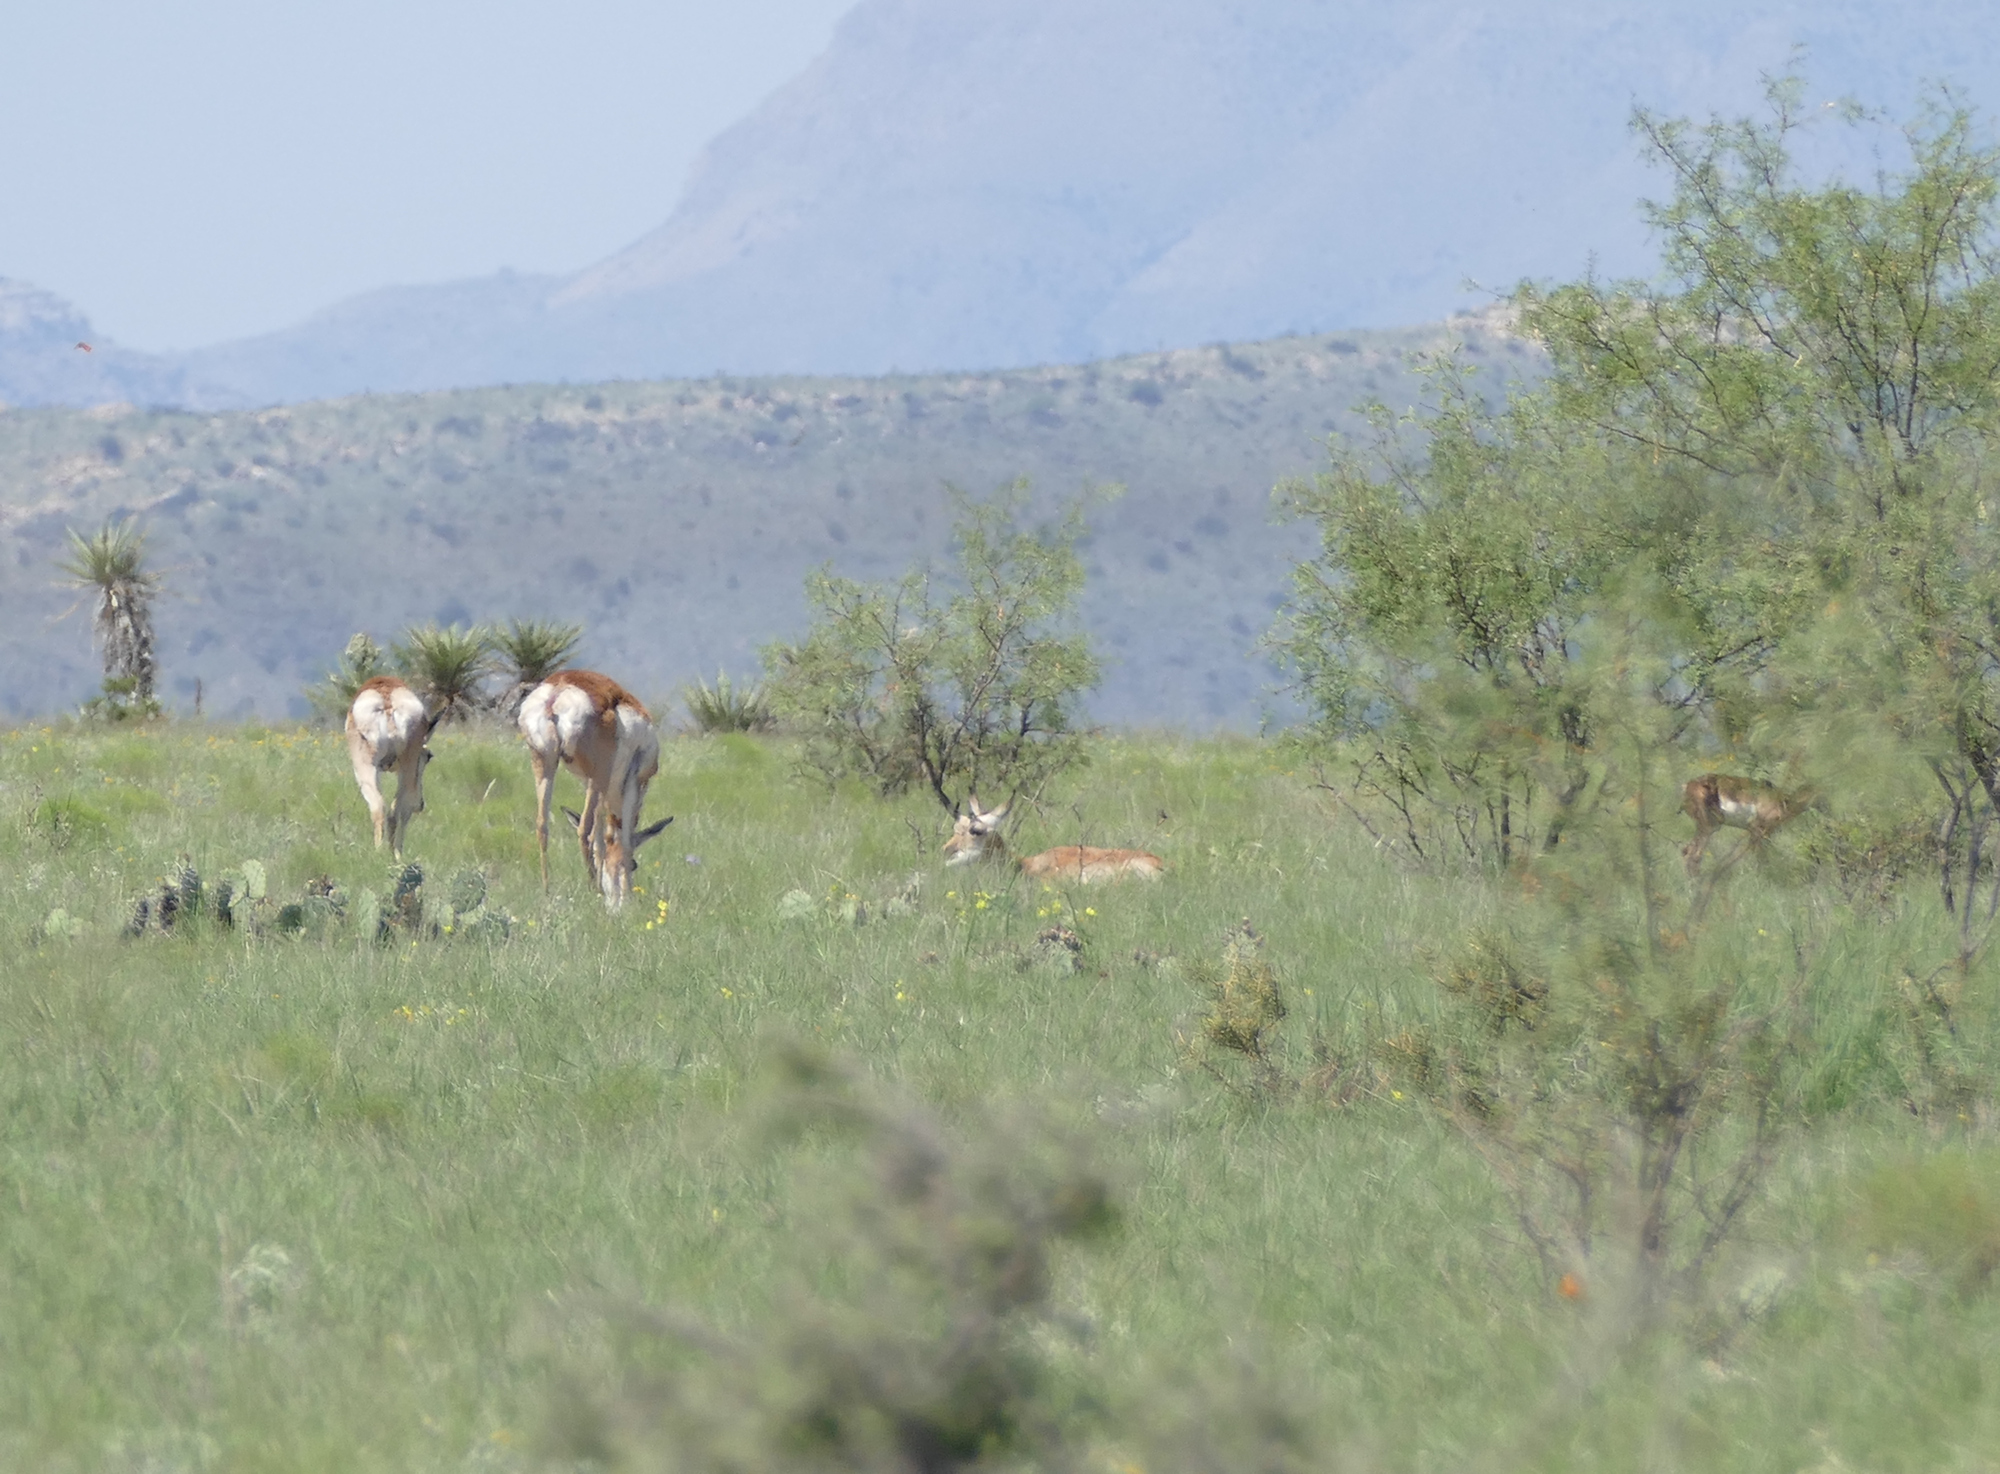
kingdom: Animalia
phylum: Chordata
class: Mammalia
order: Artiodactyla
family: Antilocapridae
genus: Antilocapra
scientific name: Antilocapra americana
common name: Pronghorn
